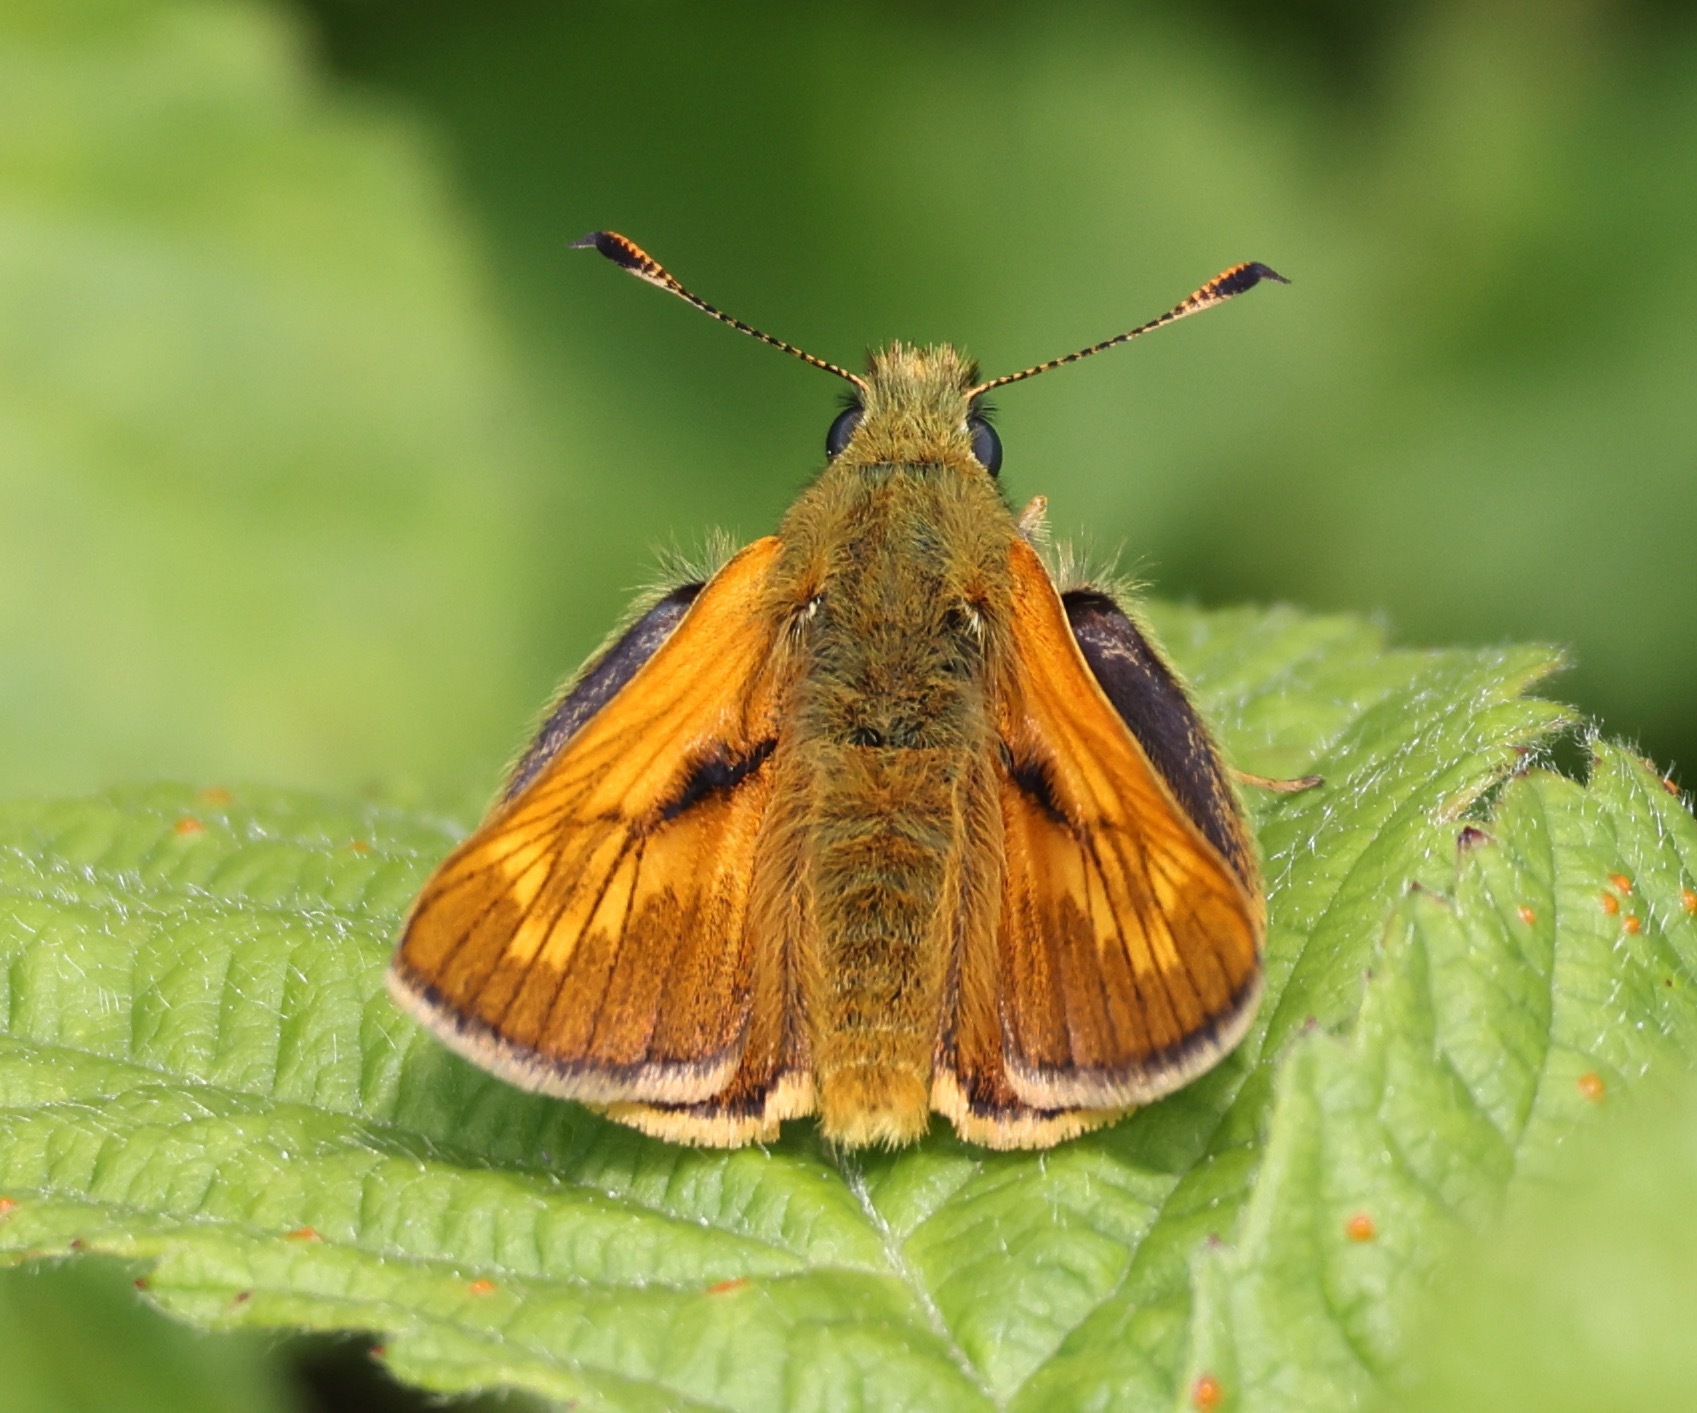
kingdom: Animalia
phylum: Arthropoda
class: Insecta
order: Lepidoptera
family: Hesperiidae
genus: Ochlodes
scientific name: Ochlodes venata
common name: Large skipper
